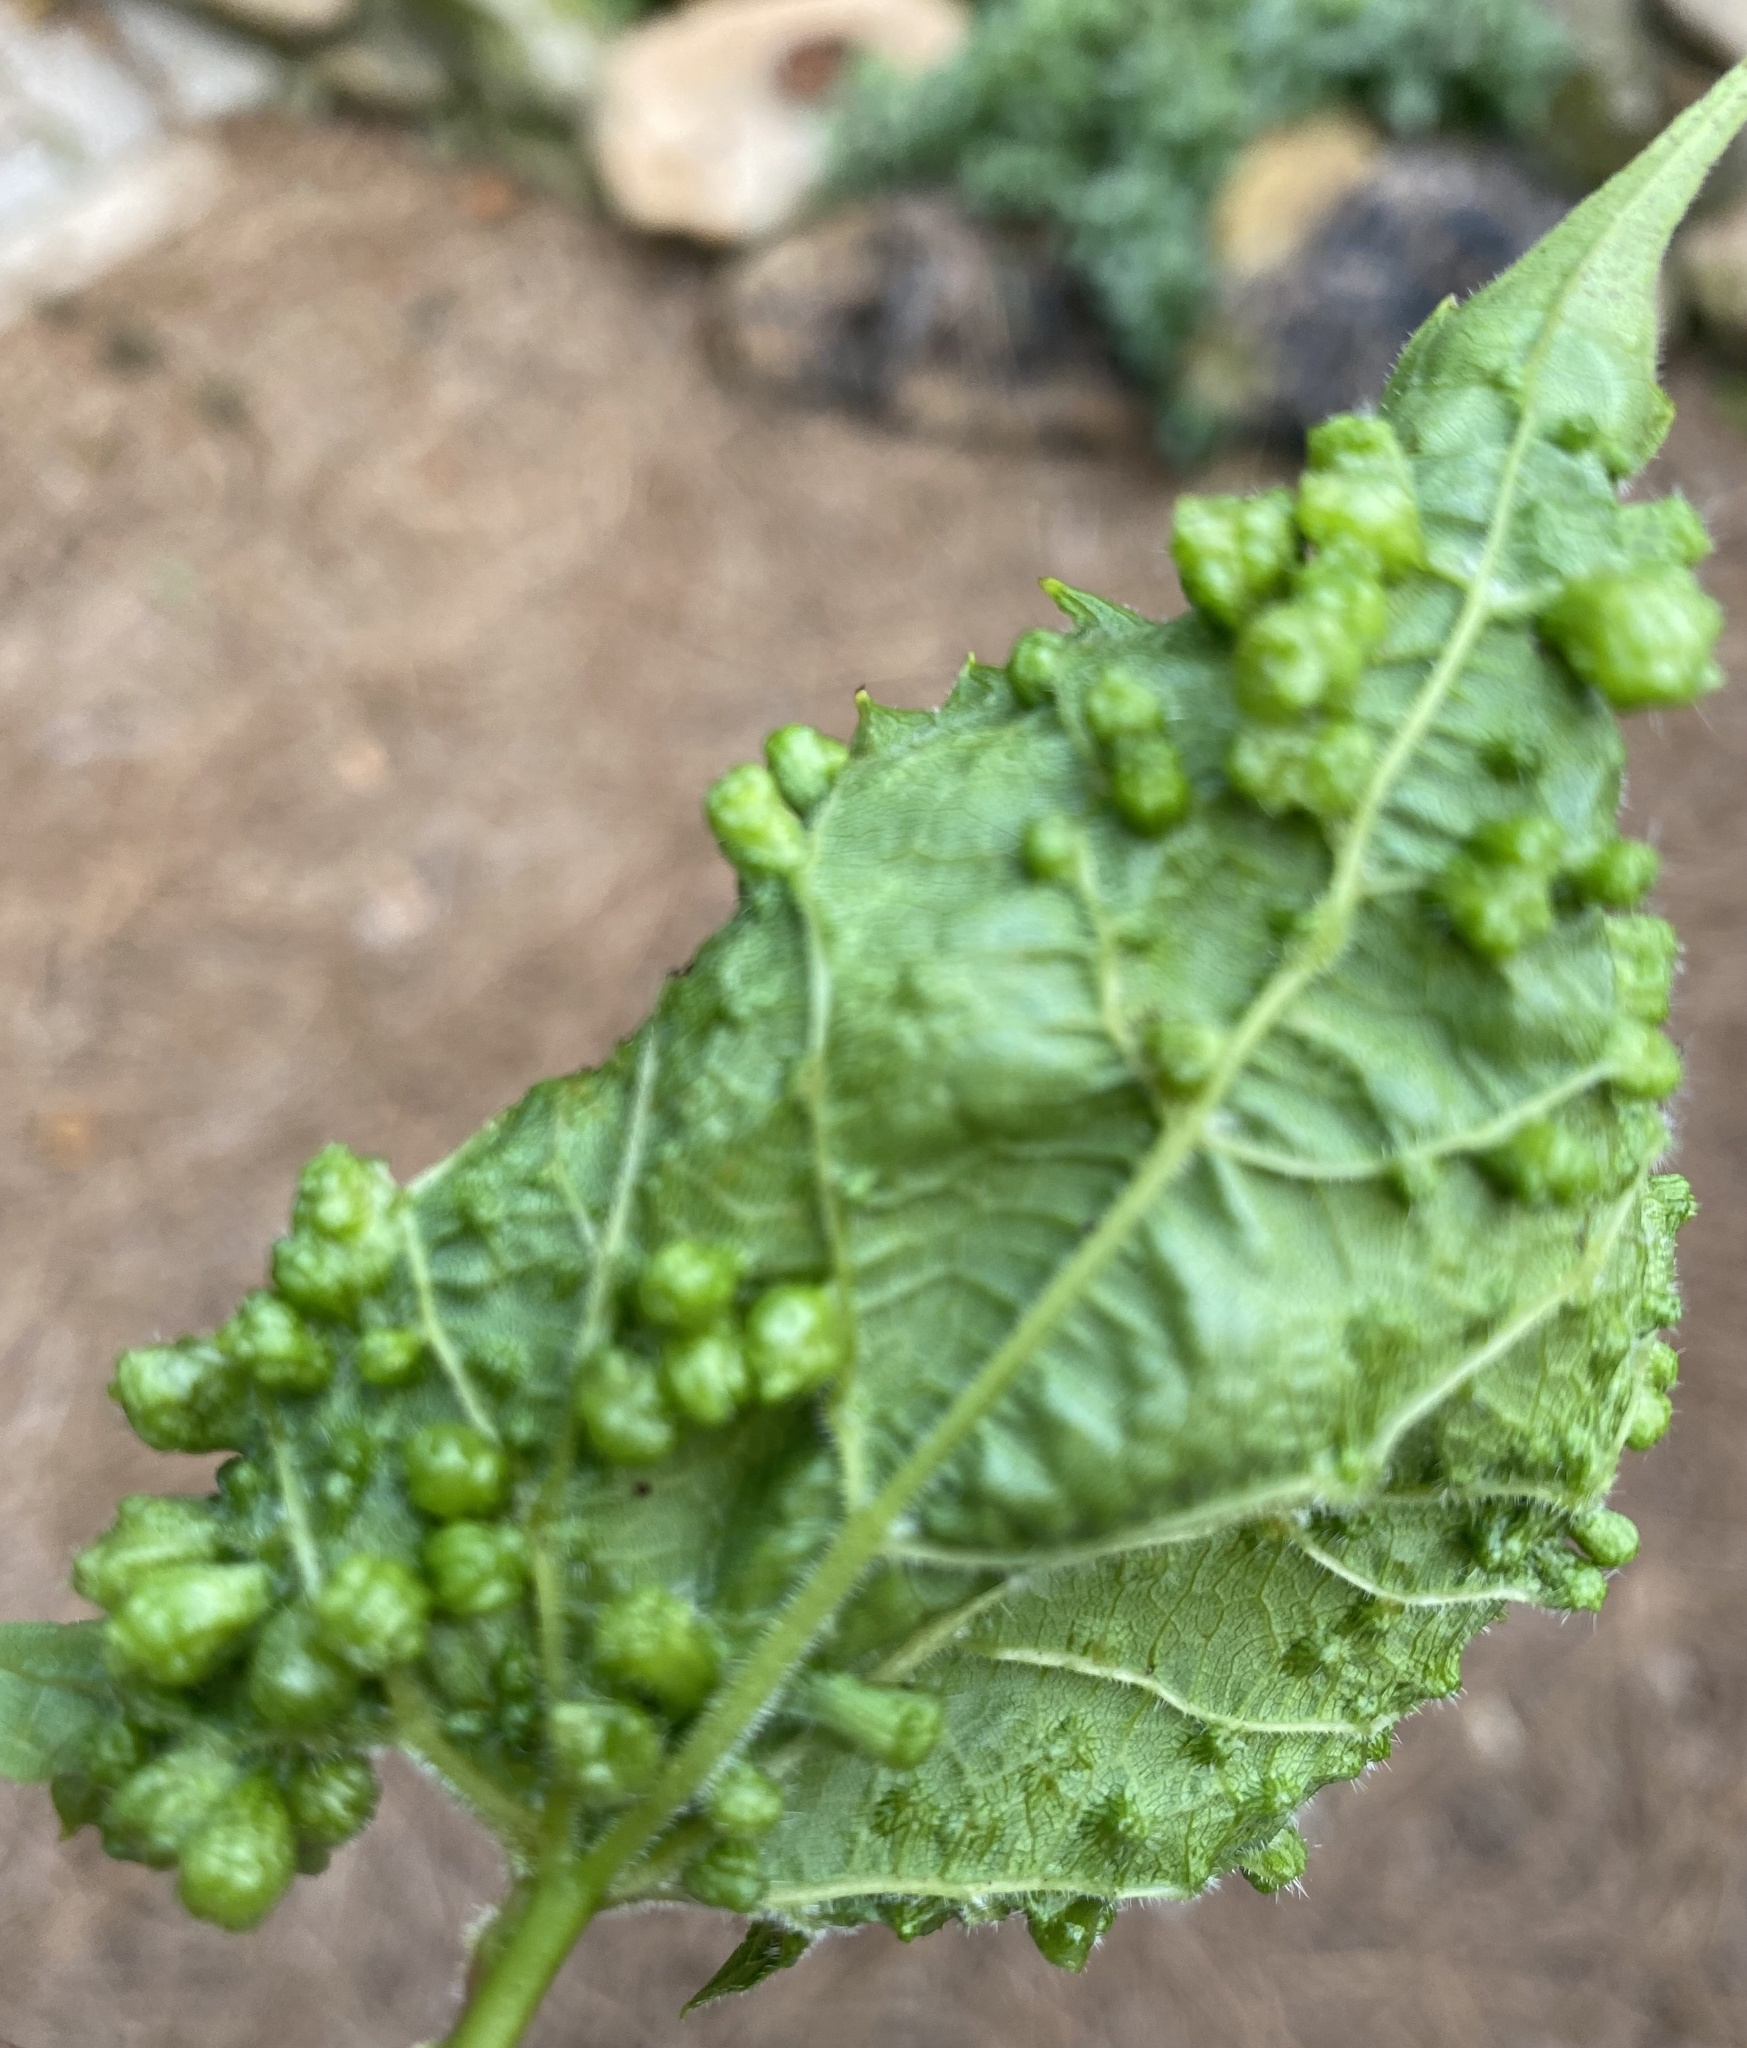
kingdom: Animalia
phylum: Arthropoda
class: Insecta
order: Hemiptera
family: Phylloxeridae
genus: Daktulosphaira
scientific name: Daktulosphaira vitifoliae
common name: Grape phylloxera
